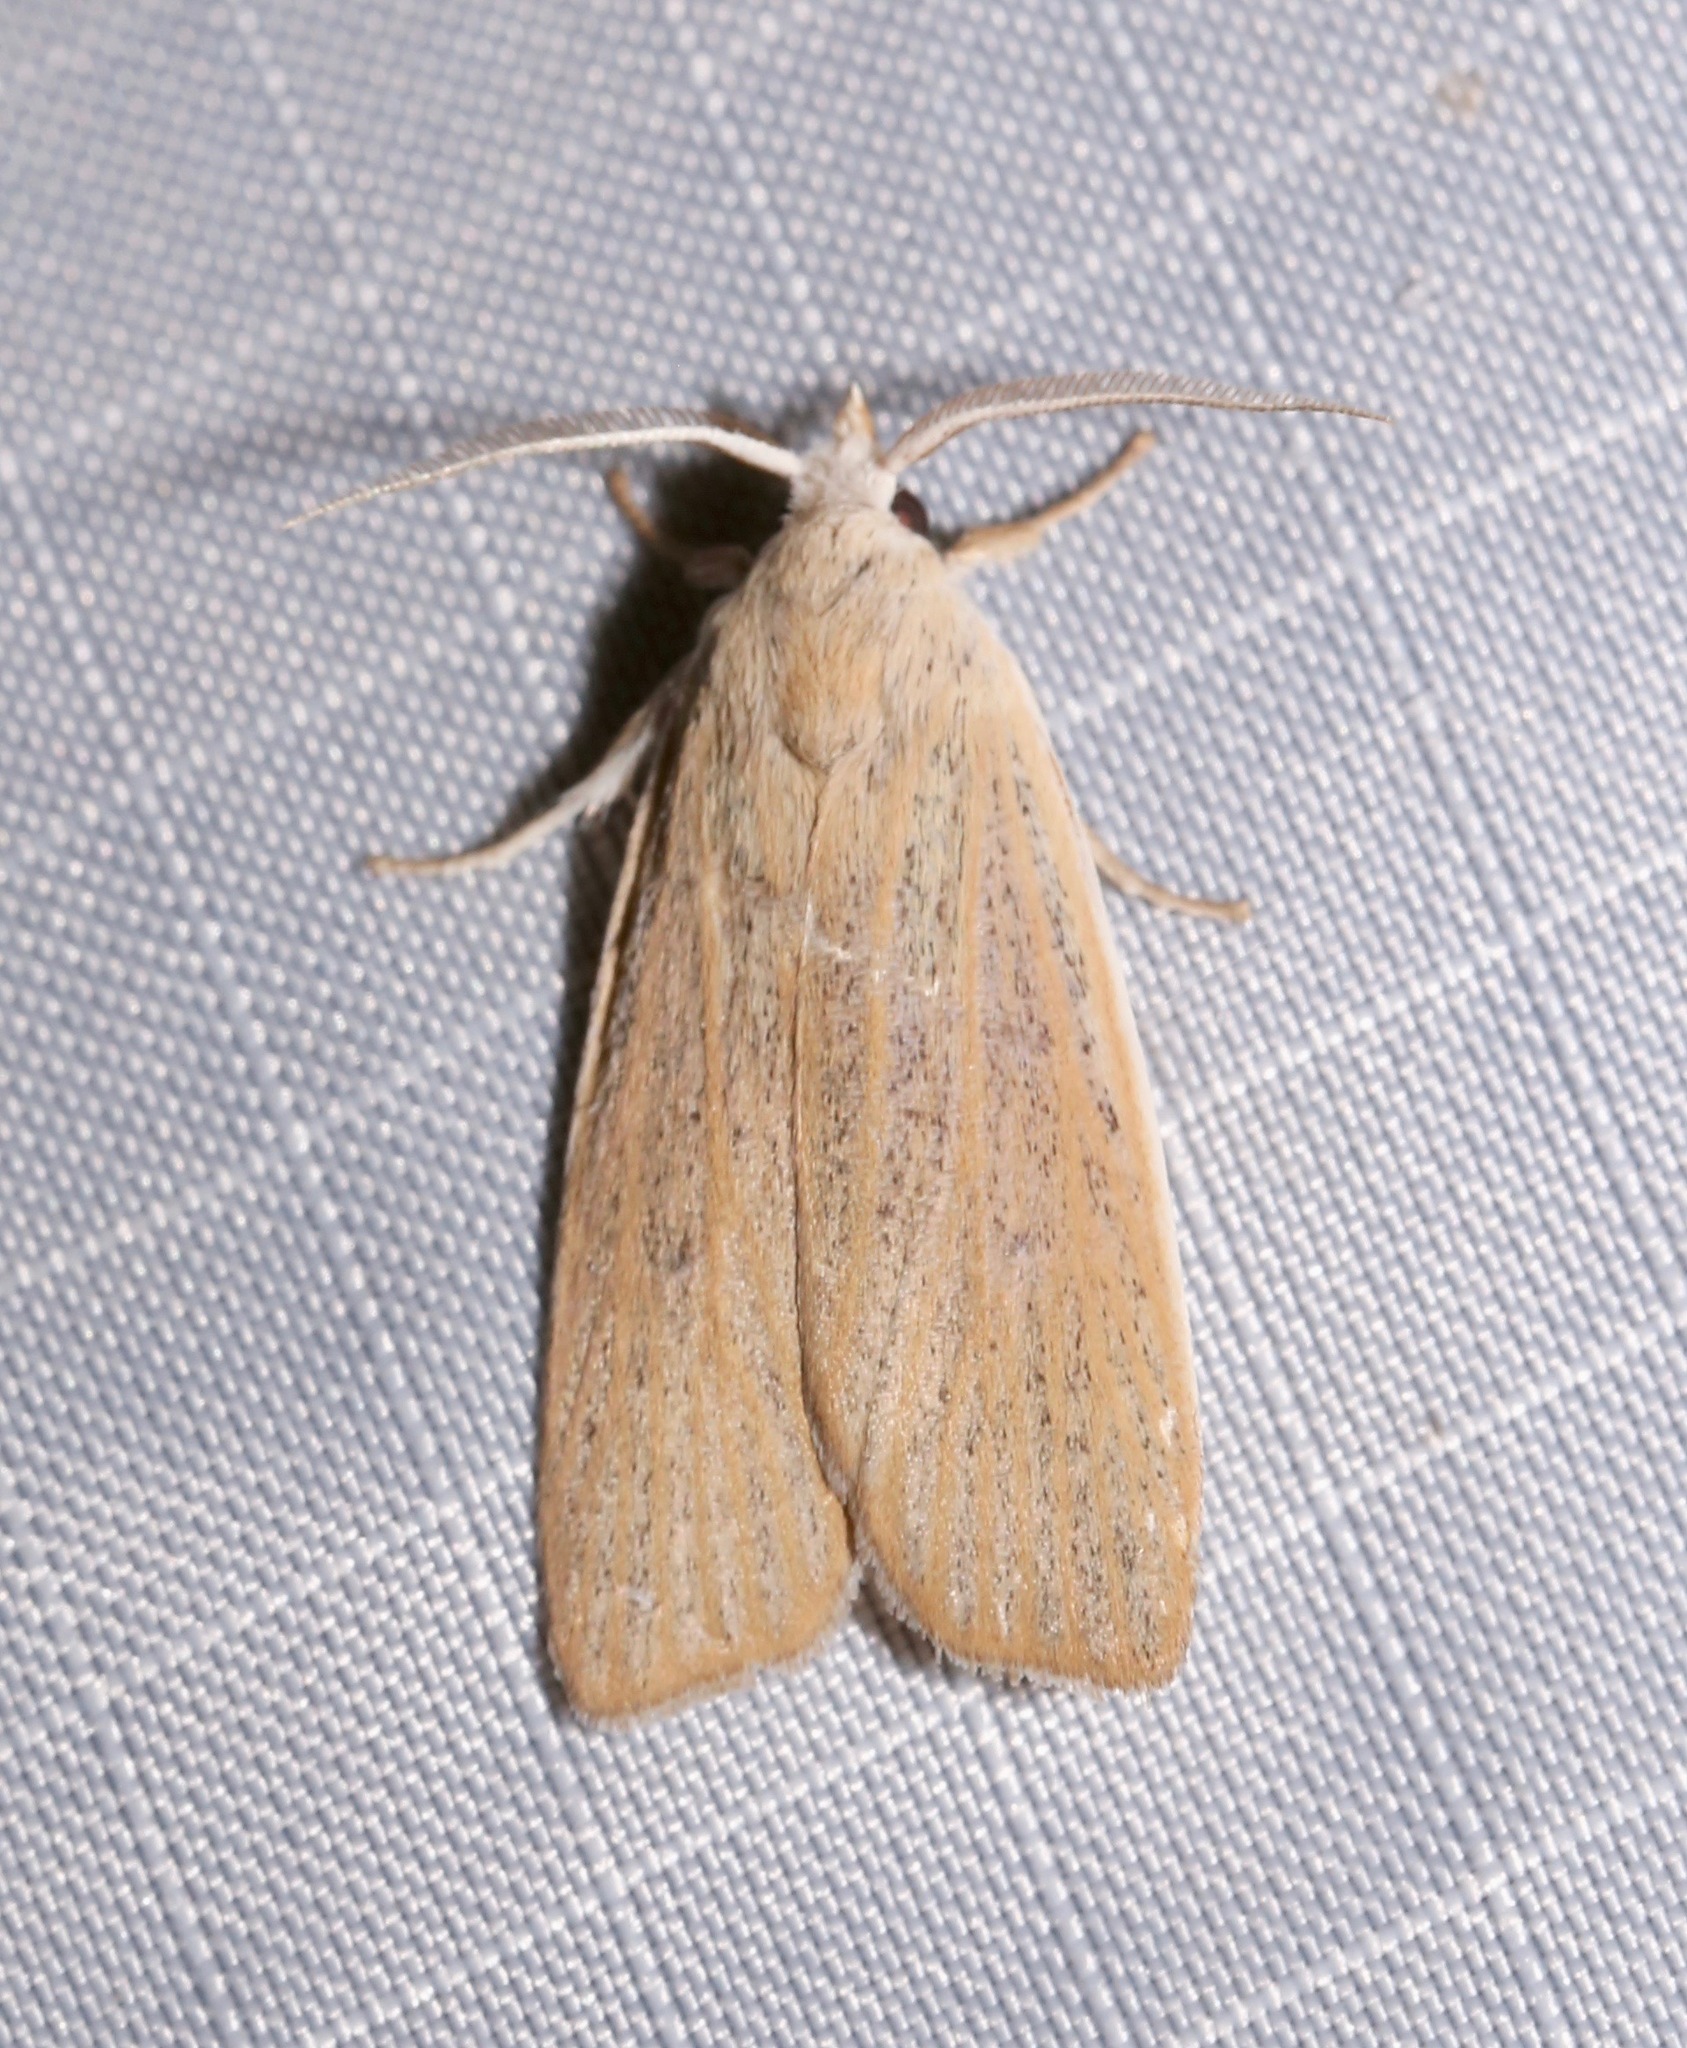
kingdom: Animalia
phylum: Arthropoda
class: Insecta
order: Lepidoptera
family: Erebidae
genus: Palpidia
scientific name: Palpidia pallidior
